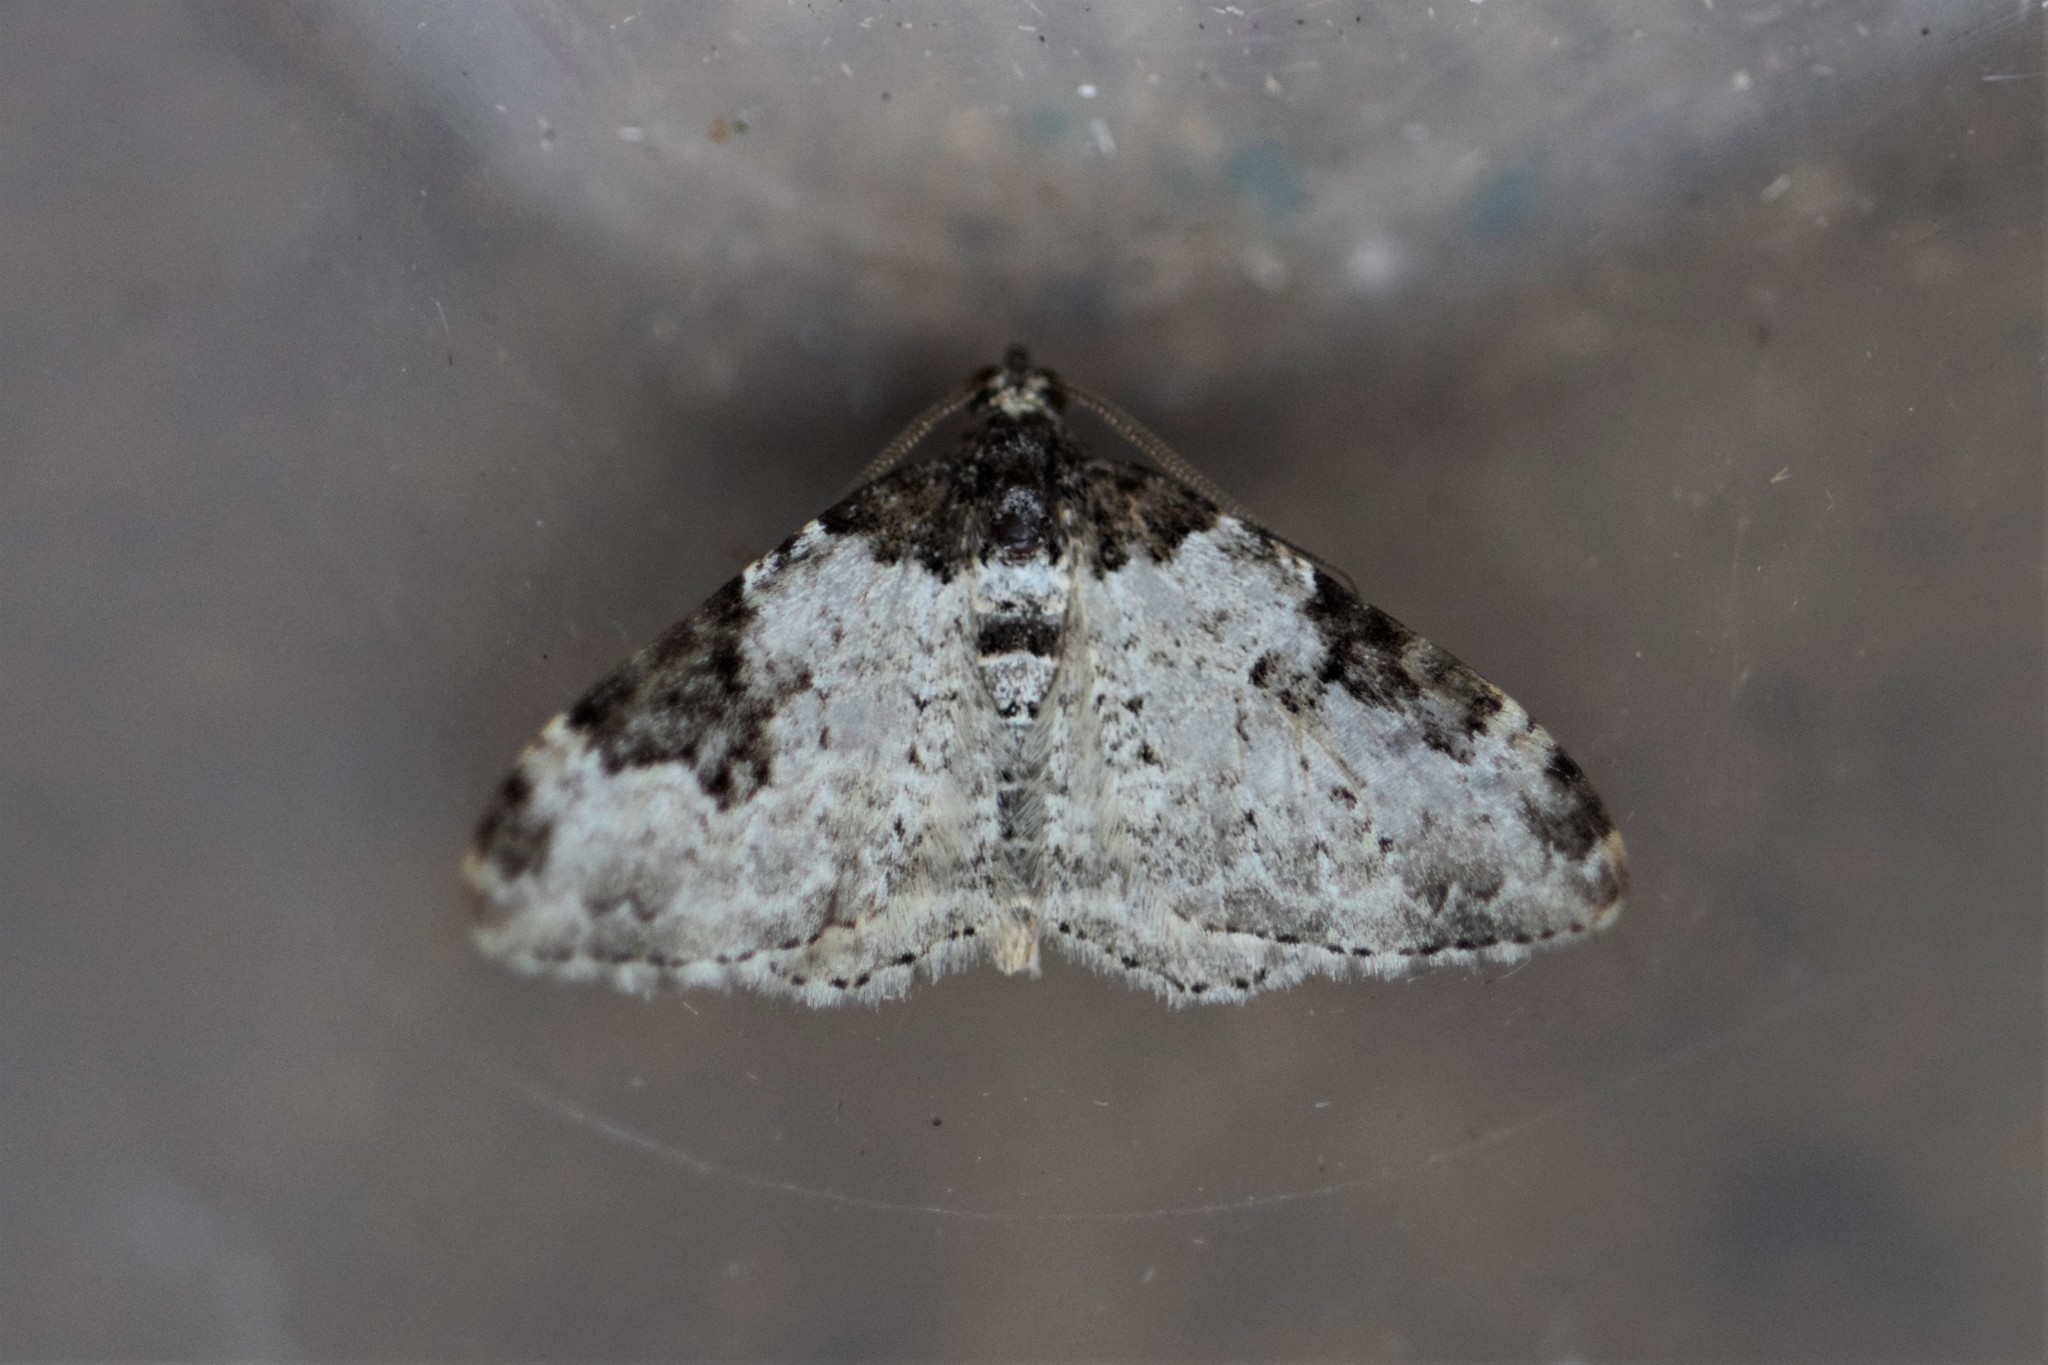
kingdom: Animalia
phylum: Arthropoda
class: Insecta
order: Lepidoptera
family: Geometridae
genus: Xanthorhoe
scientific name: Xanthorhoe fluctuata
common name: Garden carpet
